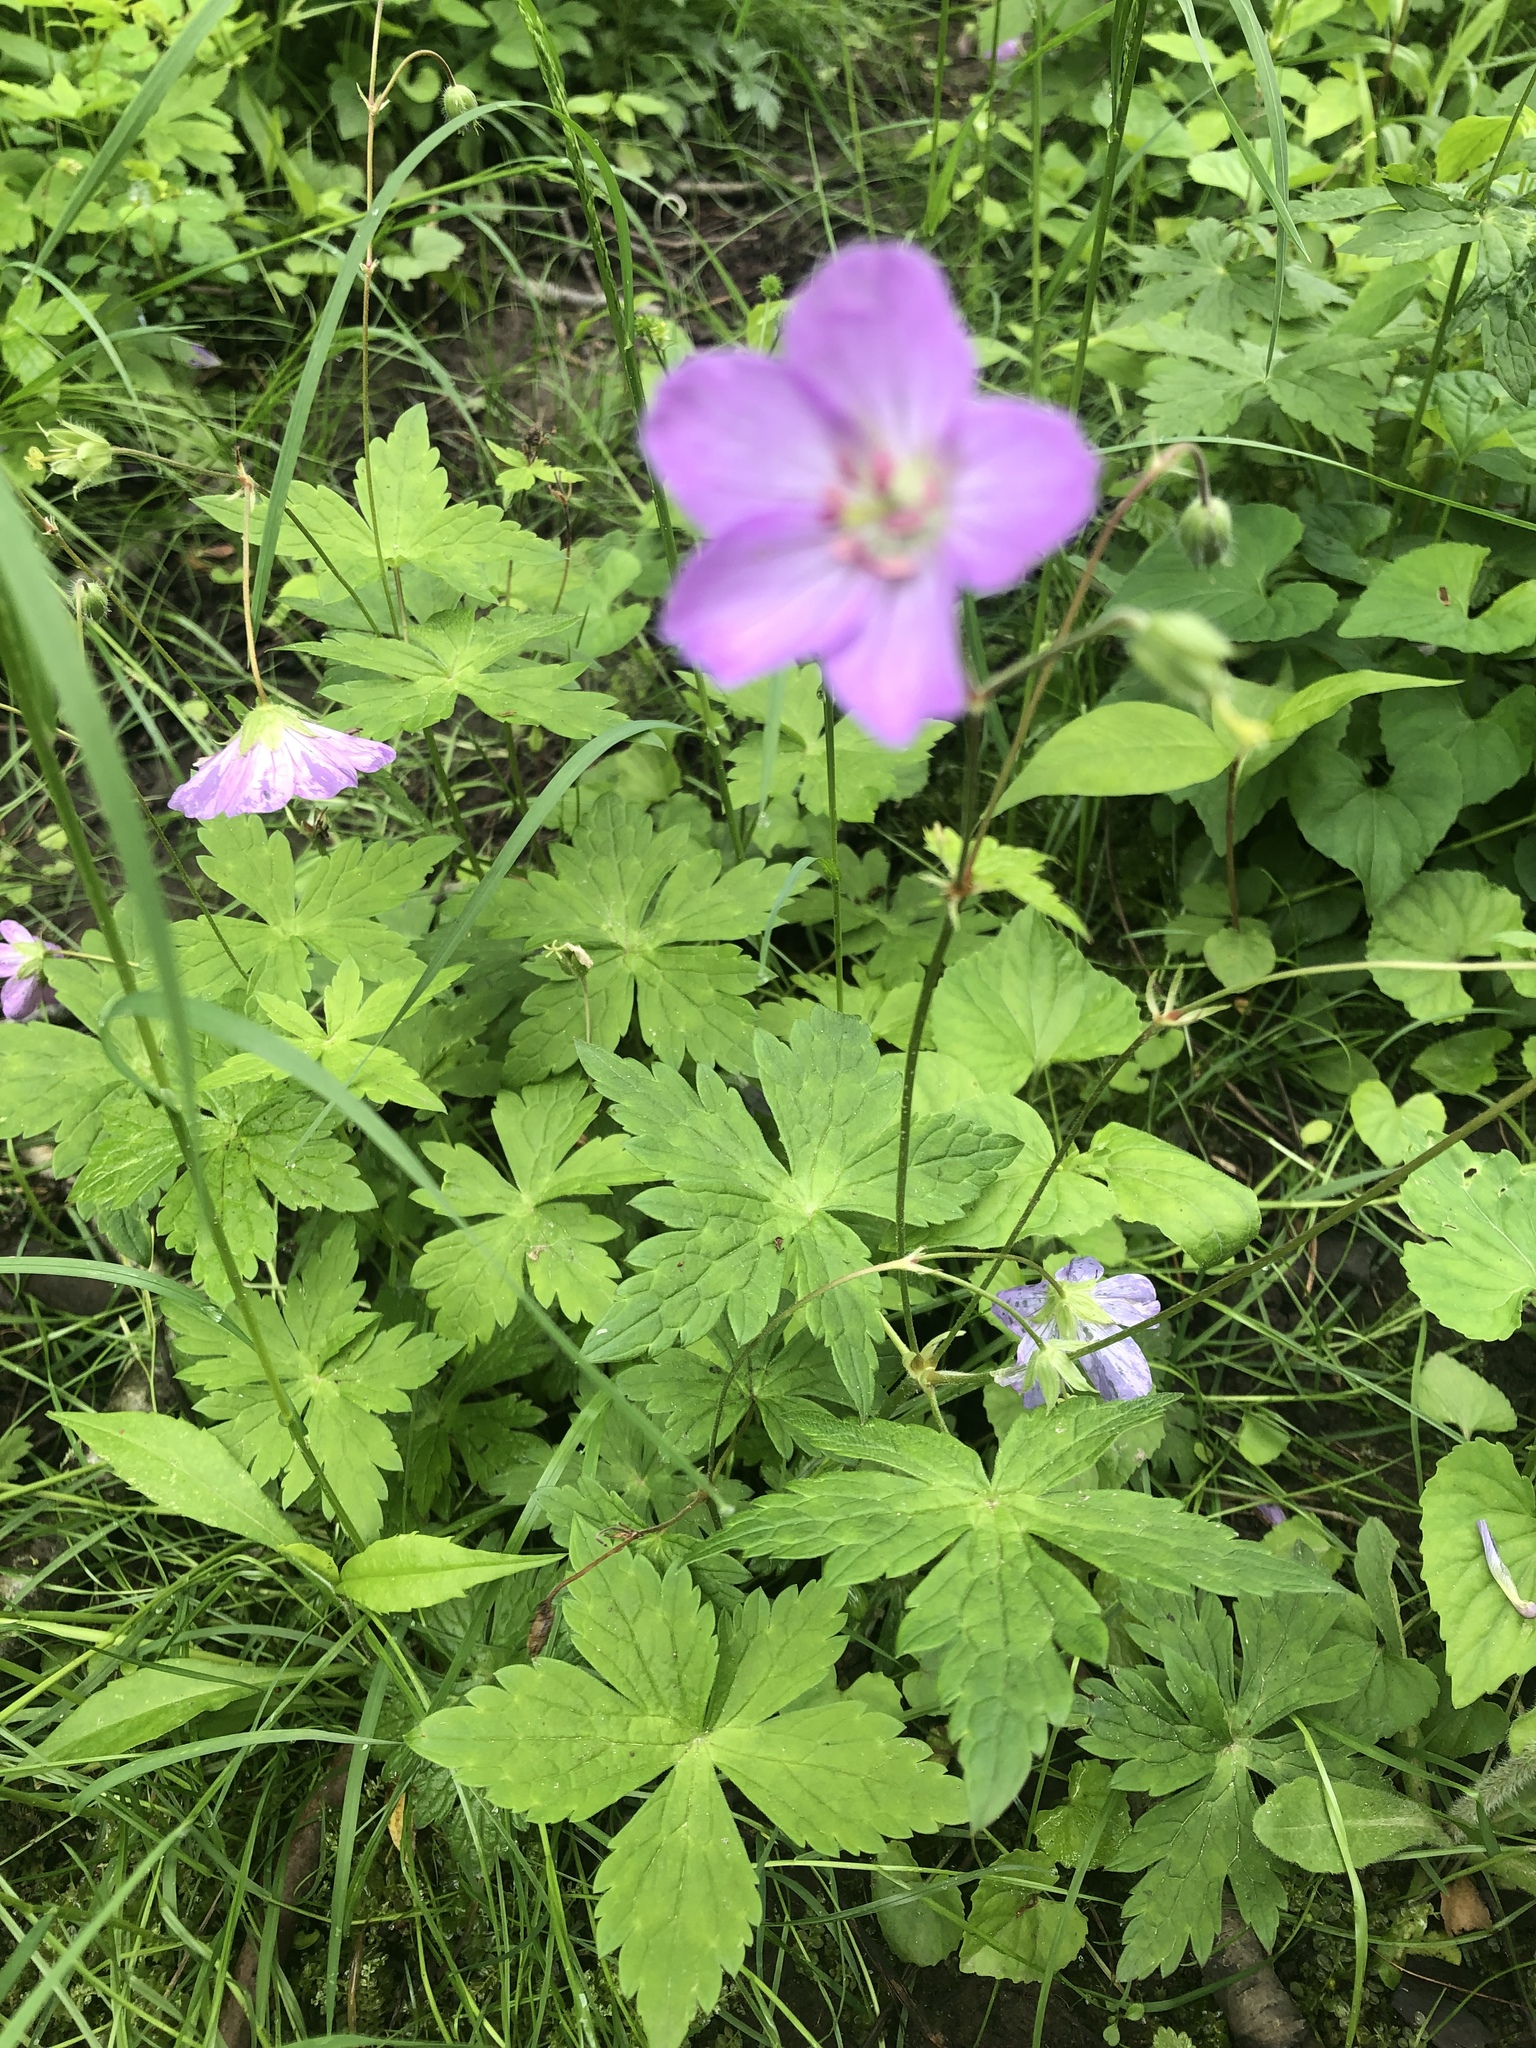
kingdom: Plantae
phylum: Tracheophyta
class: Magnoliopsida
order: Geraniales
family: Geraniaceae
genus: Geranium
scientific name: Geranium maculatum
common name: Spotted geranium
